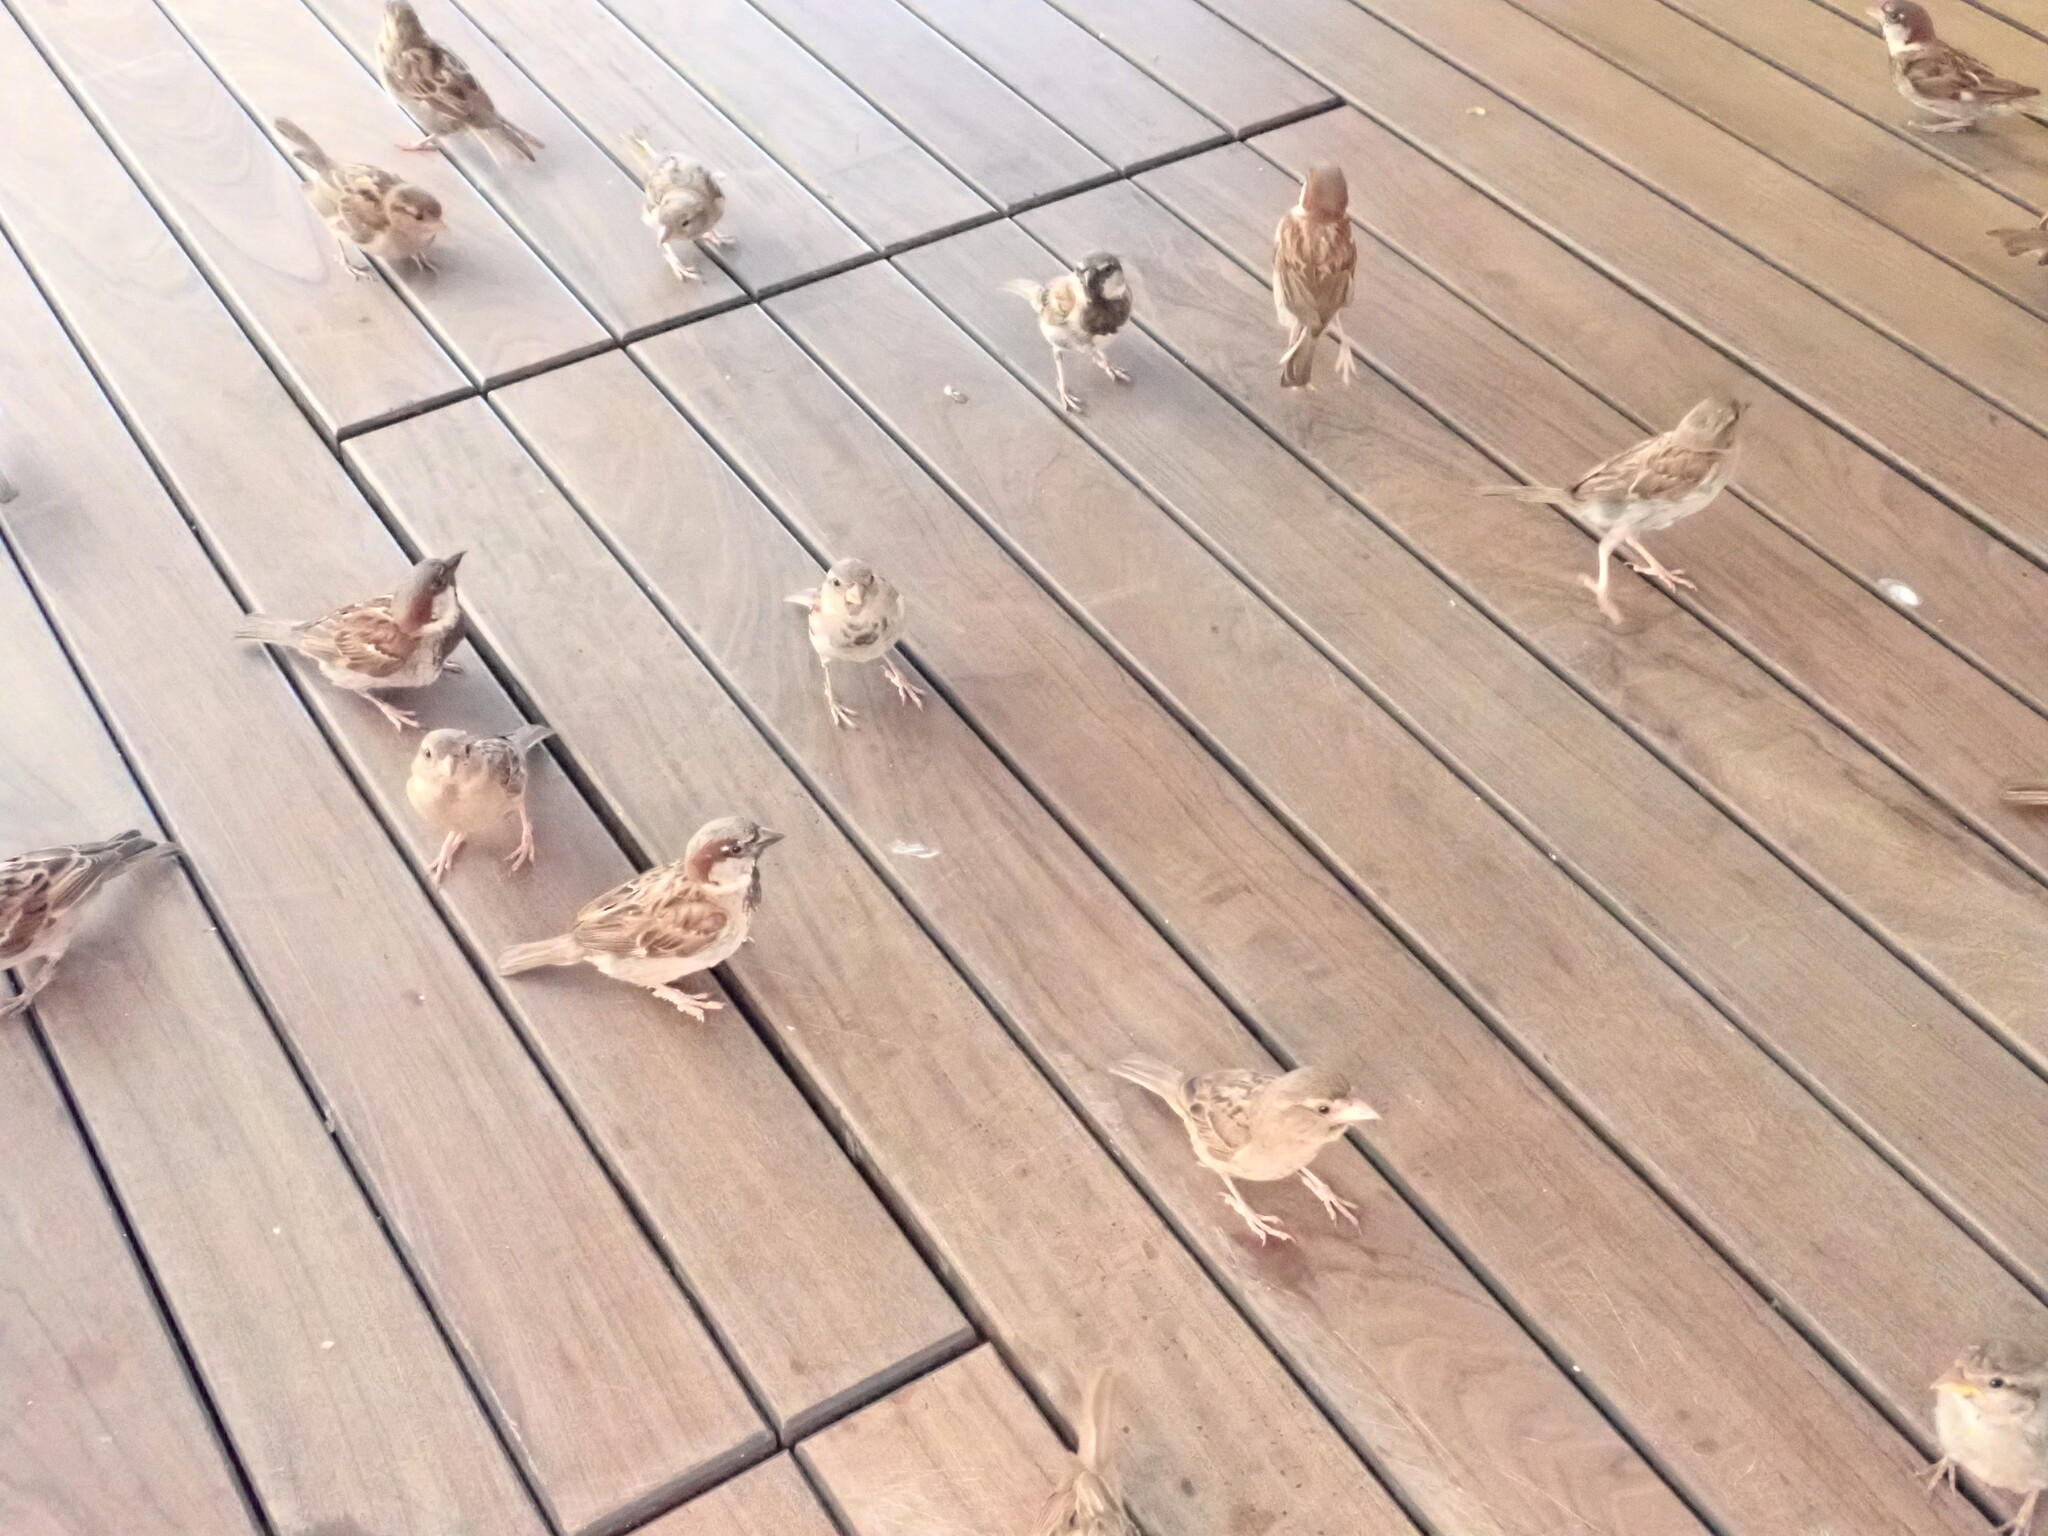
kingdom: Animalia
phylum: Chordata
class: Aves
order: Passeriformes
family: Passeridae
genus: Passer
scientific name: Passer domesticus
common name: House sparrow
